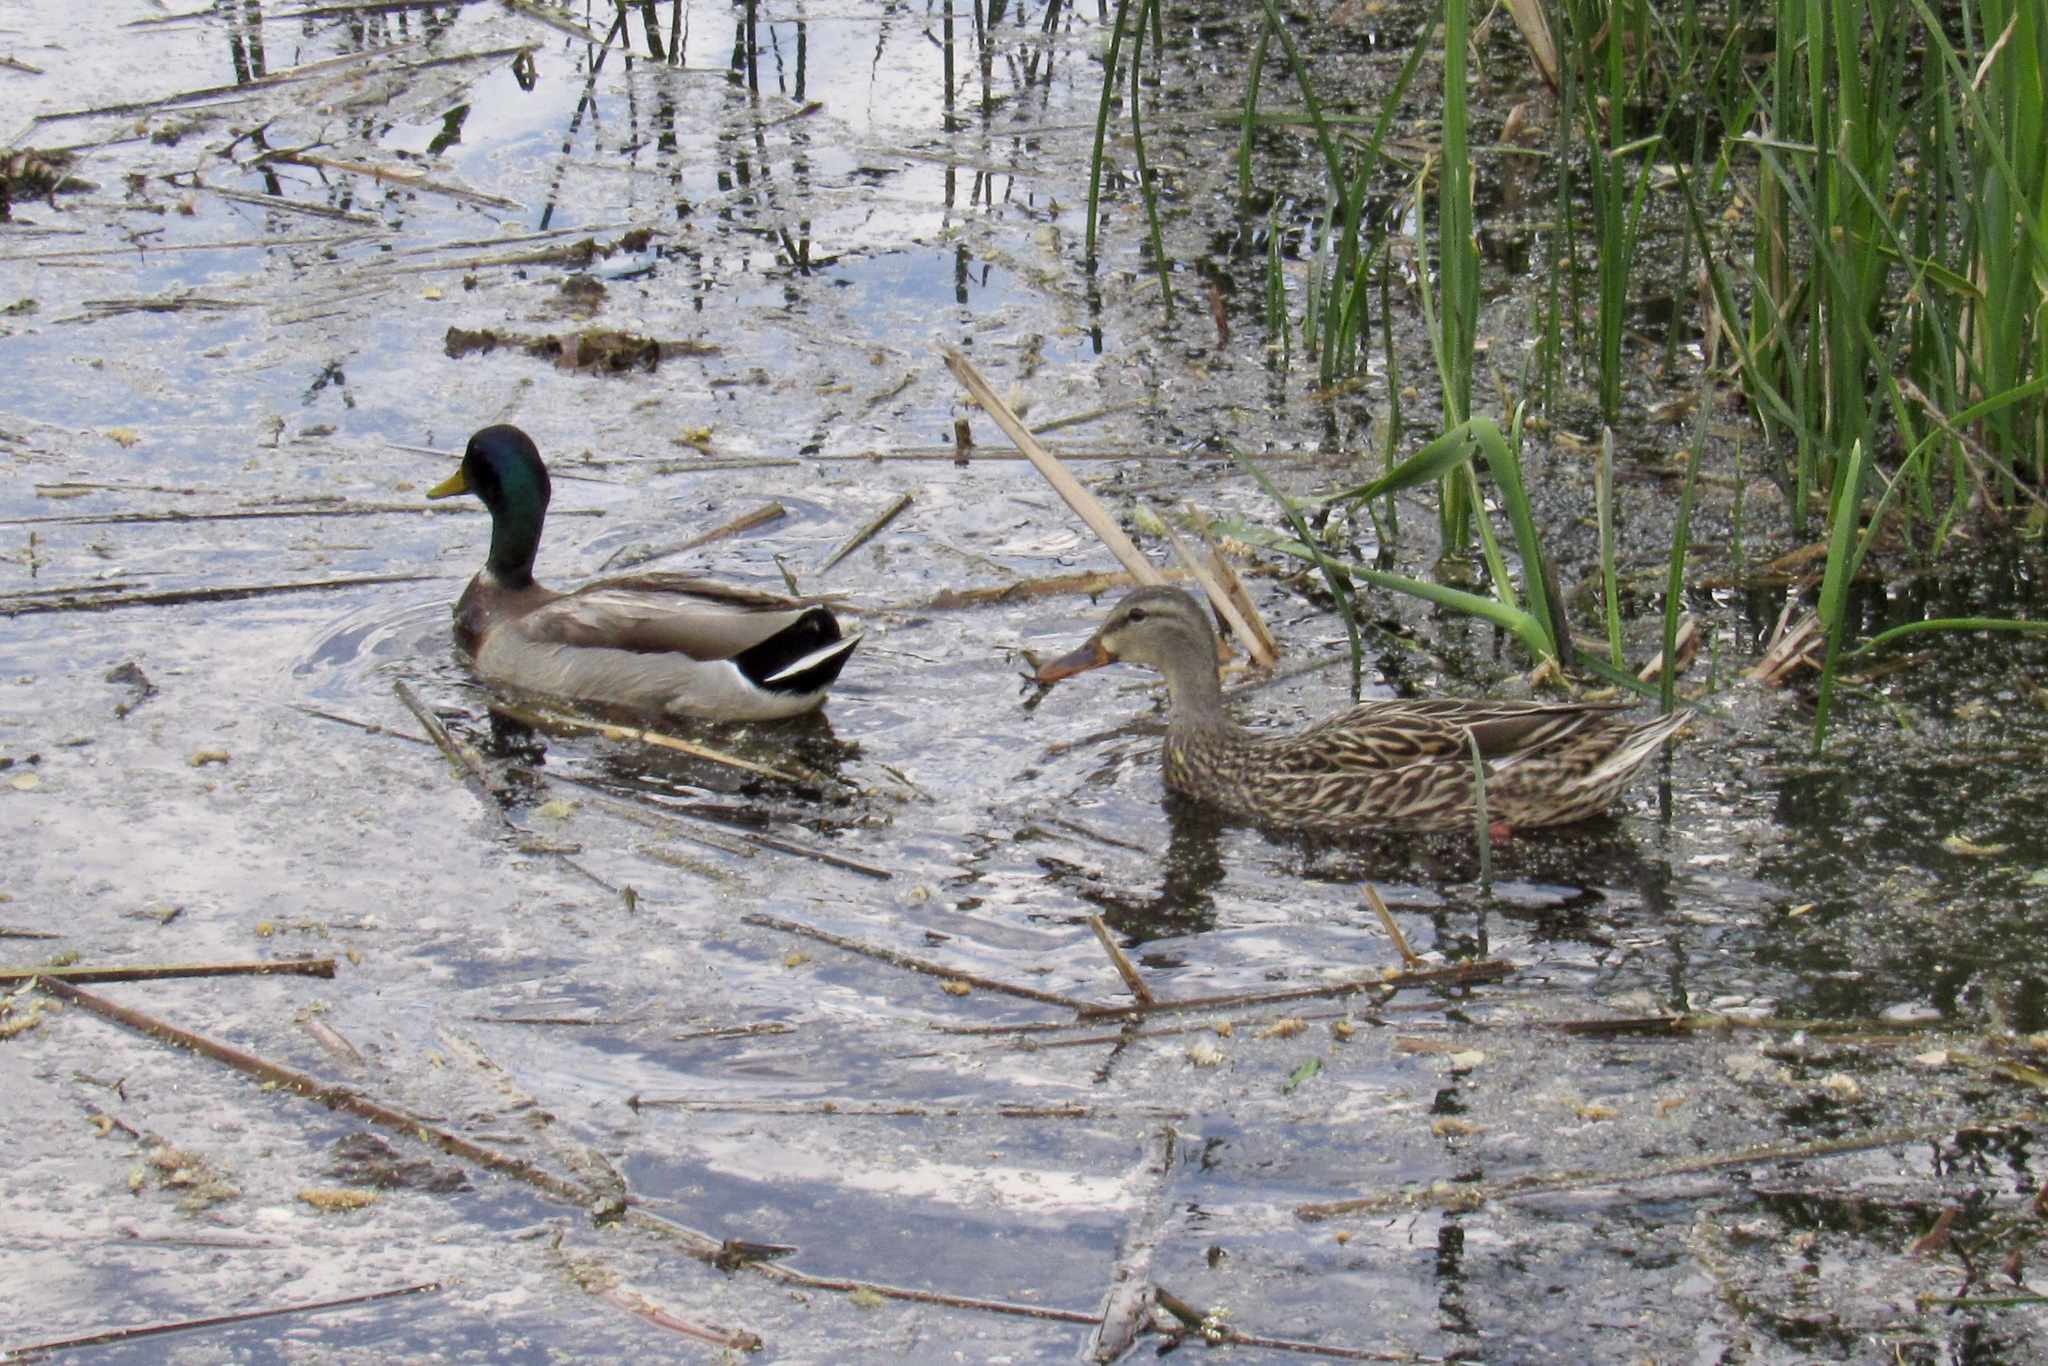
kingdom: Animalia
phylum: Chordata
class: Aves
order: Anseriformes
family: Anatidae
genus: Anas
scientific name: Anas platyrhynchos
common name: Mallard
